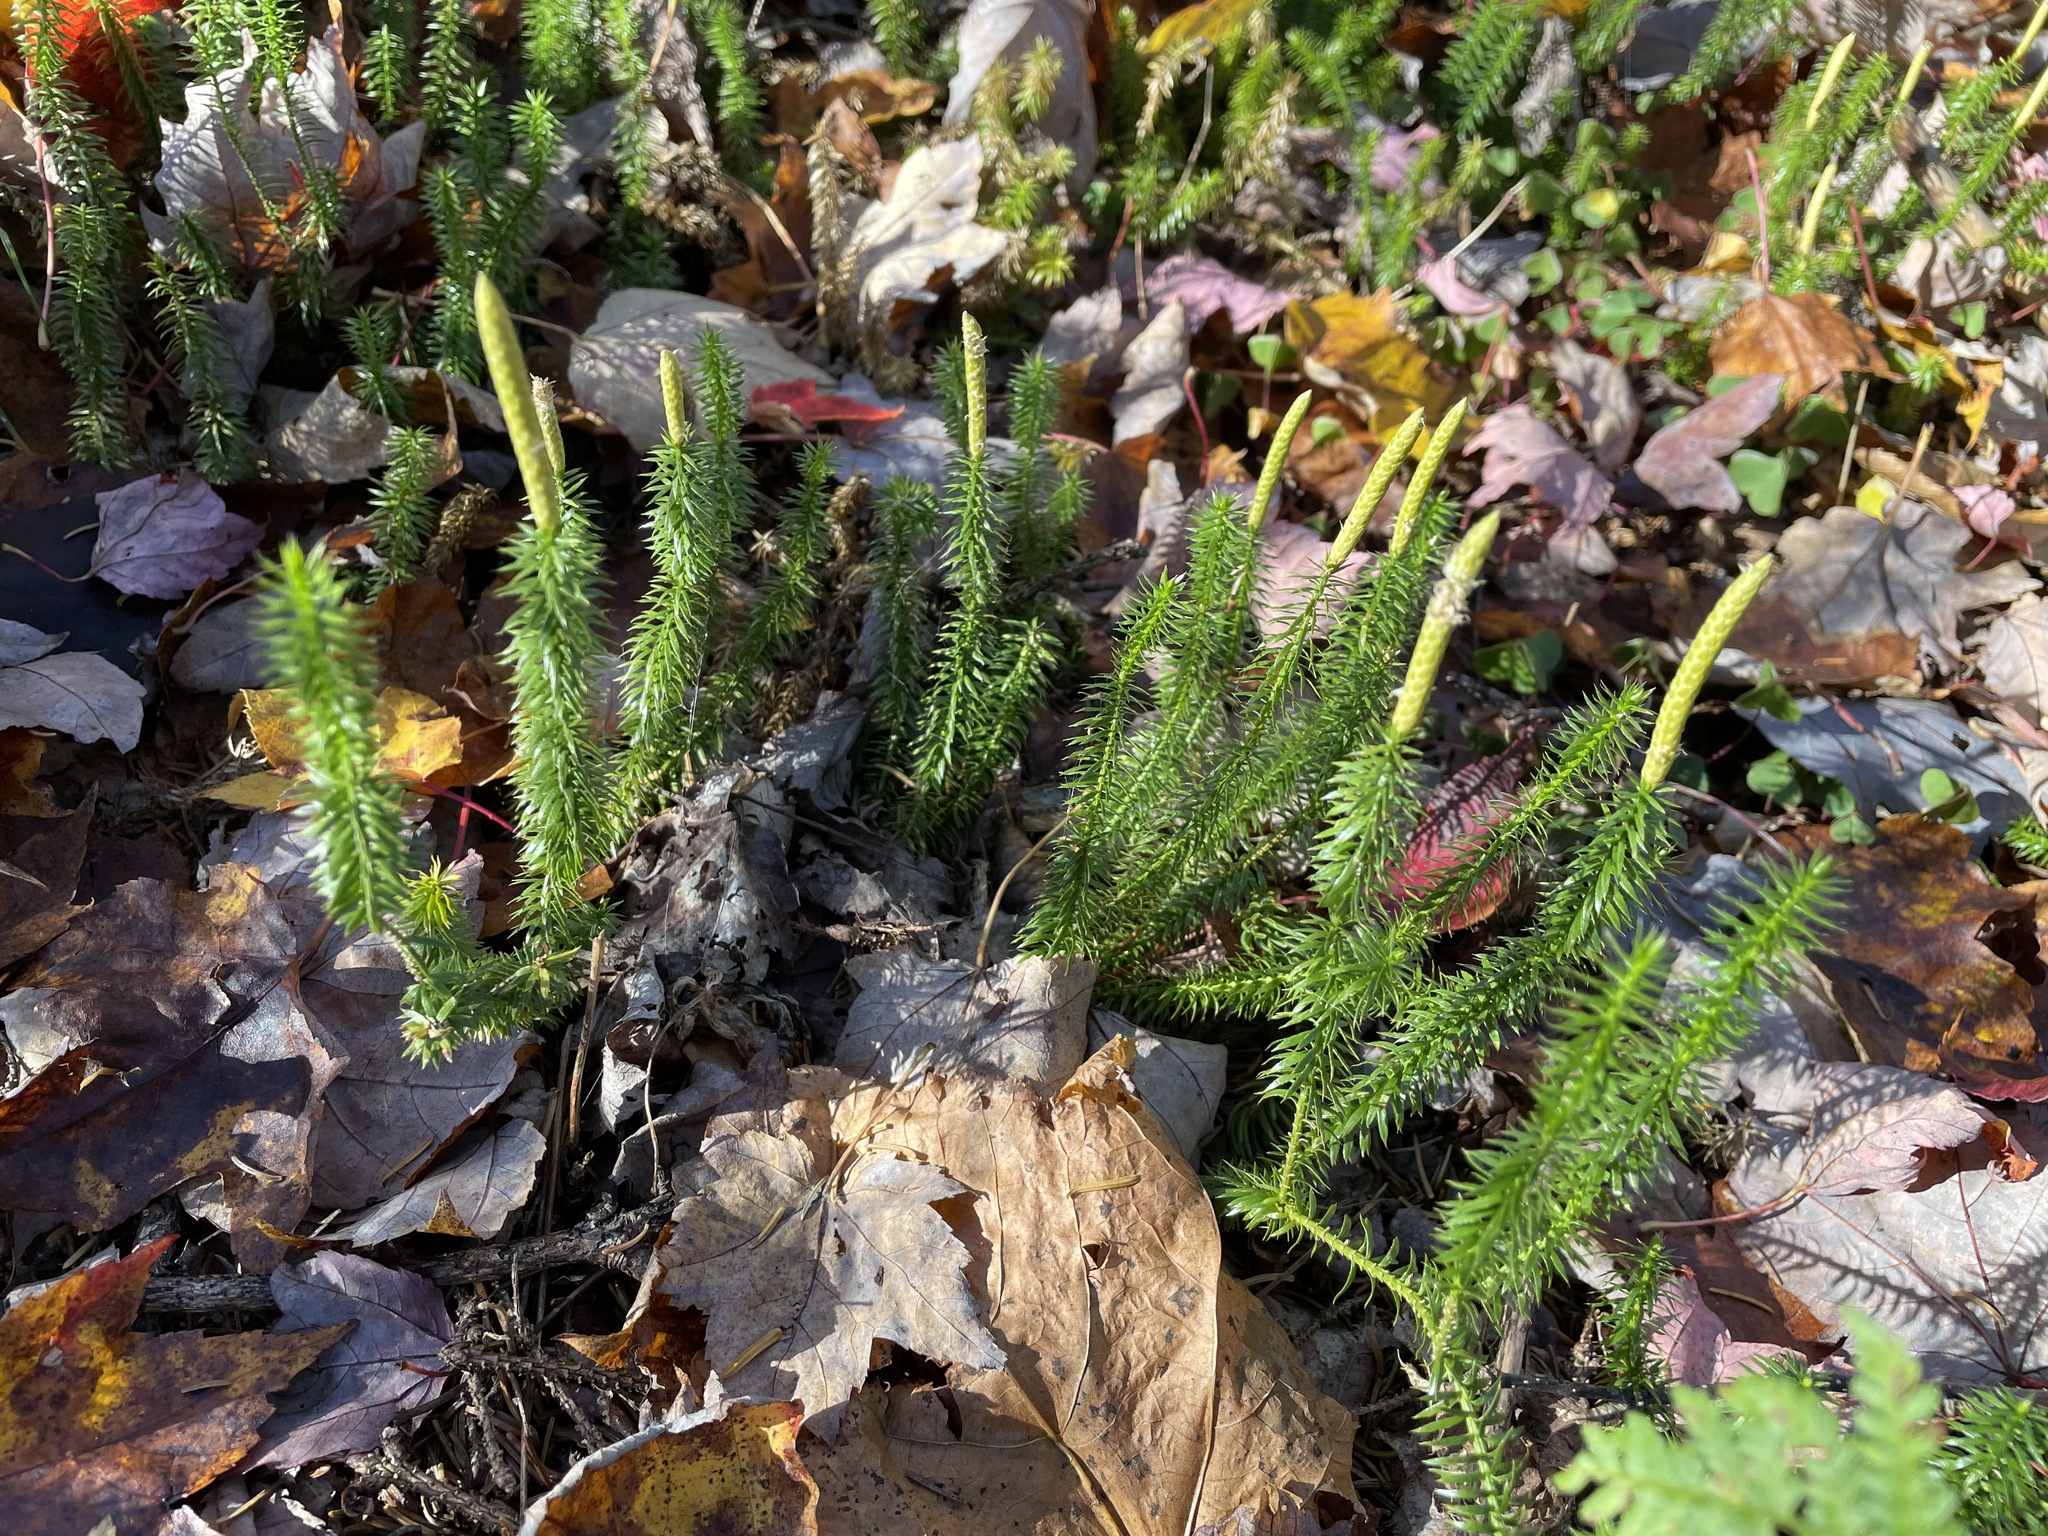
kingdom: Plantae
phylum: Tracheophyta
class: Lycopodiopsida
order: Lycopodiales
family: Lycopodiaceae
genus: Spinulum
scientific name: Spinulum annotinum
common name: Interrupted club-moss
